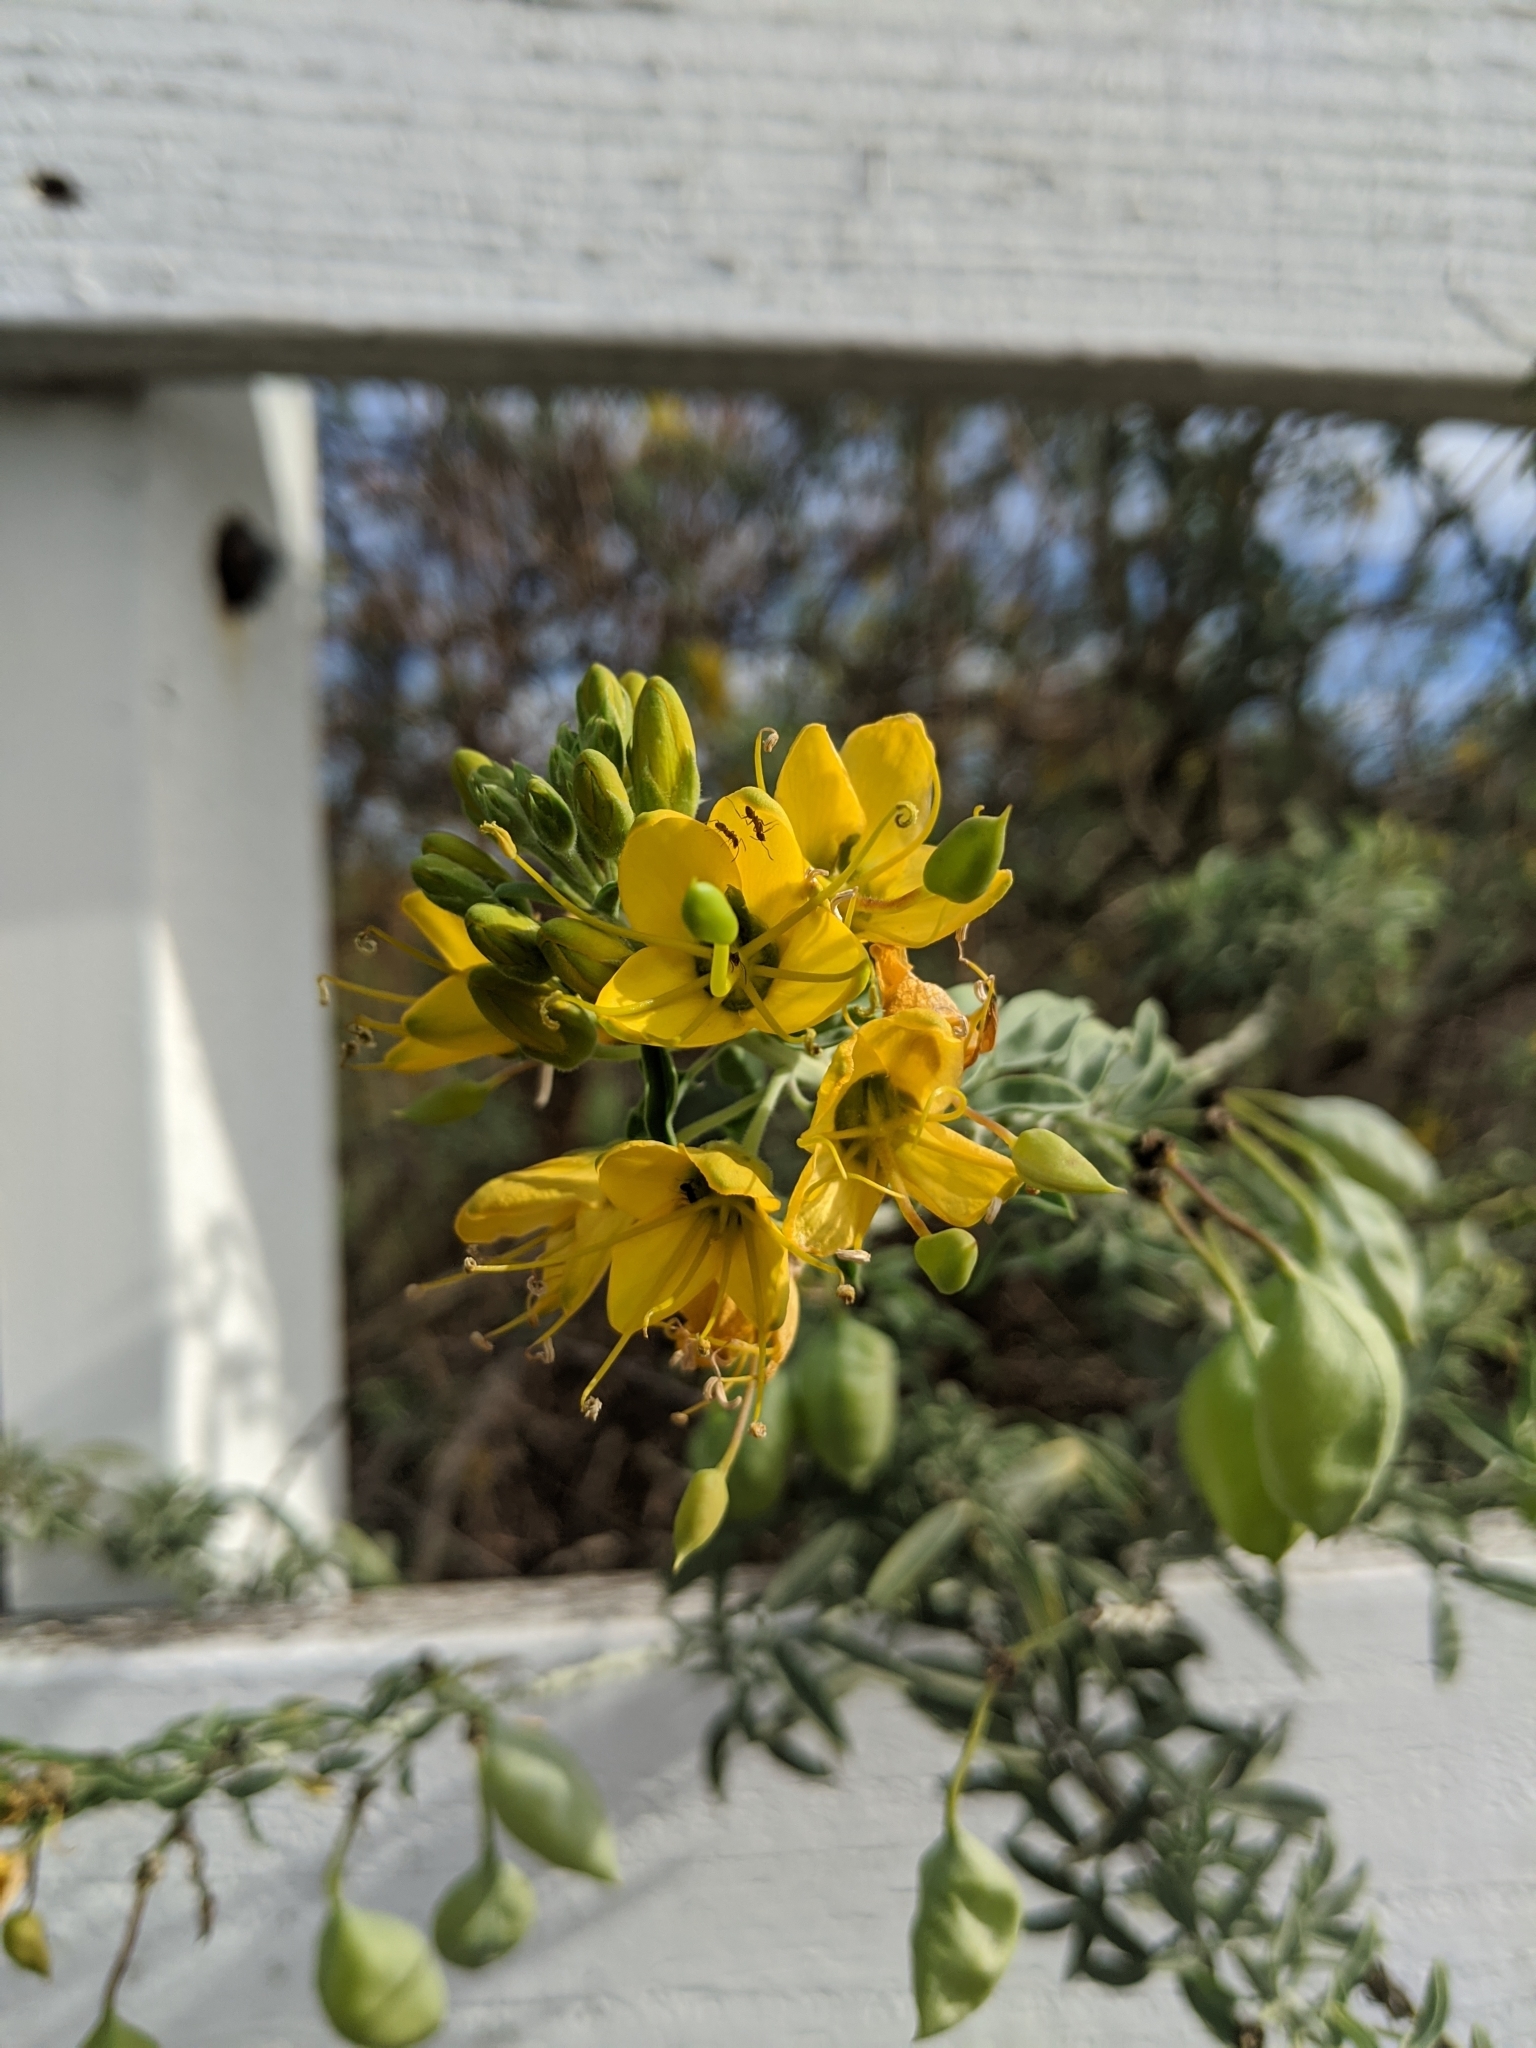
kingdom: Plantae
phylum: Tracheophyta
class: Magnoliopsida
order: Brassicales
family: Cleomaceae
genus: Cleomella
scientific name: Cleomella arborea
